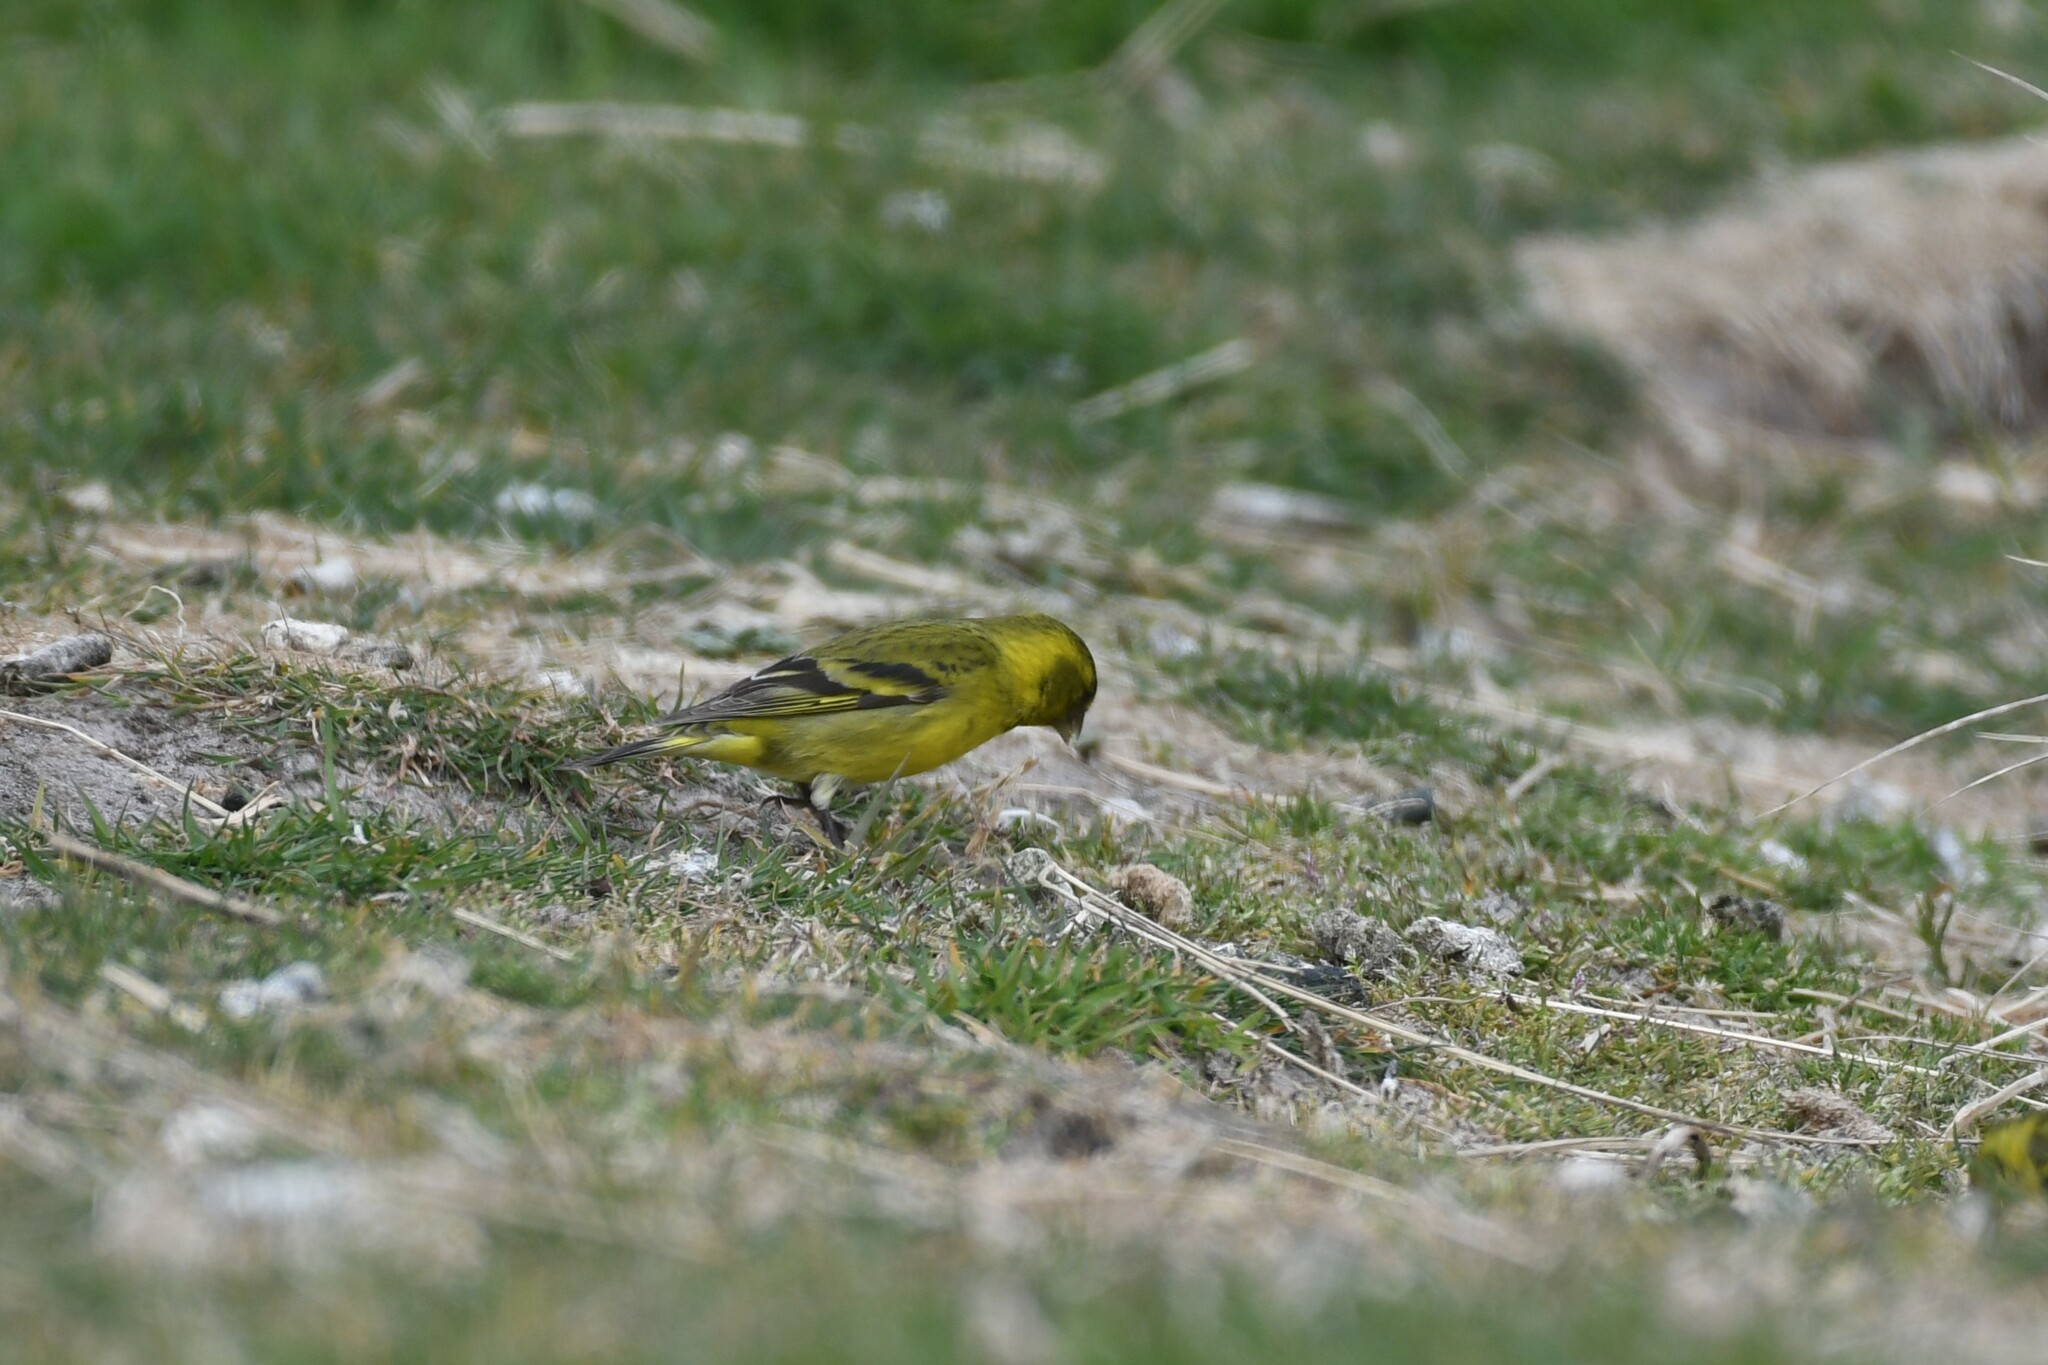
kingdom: Animalia
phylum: Chordata
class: Aves
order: Passeriformes
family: Fringillidae
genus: Spinus
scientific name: Spinus barbatus
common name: Black-chinned siskin
